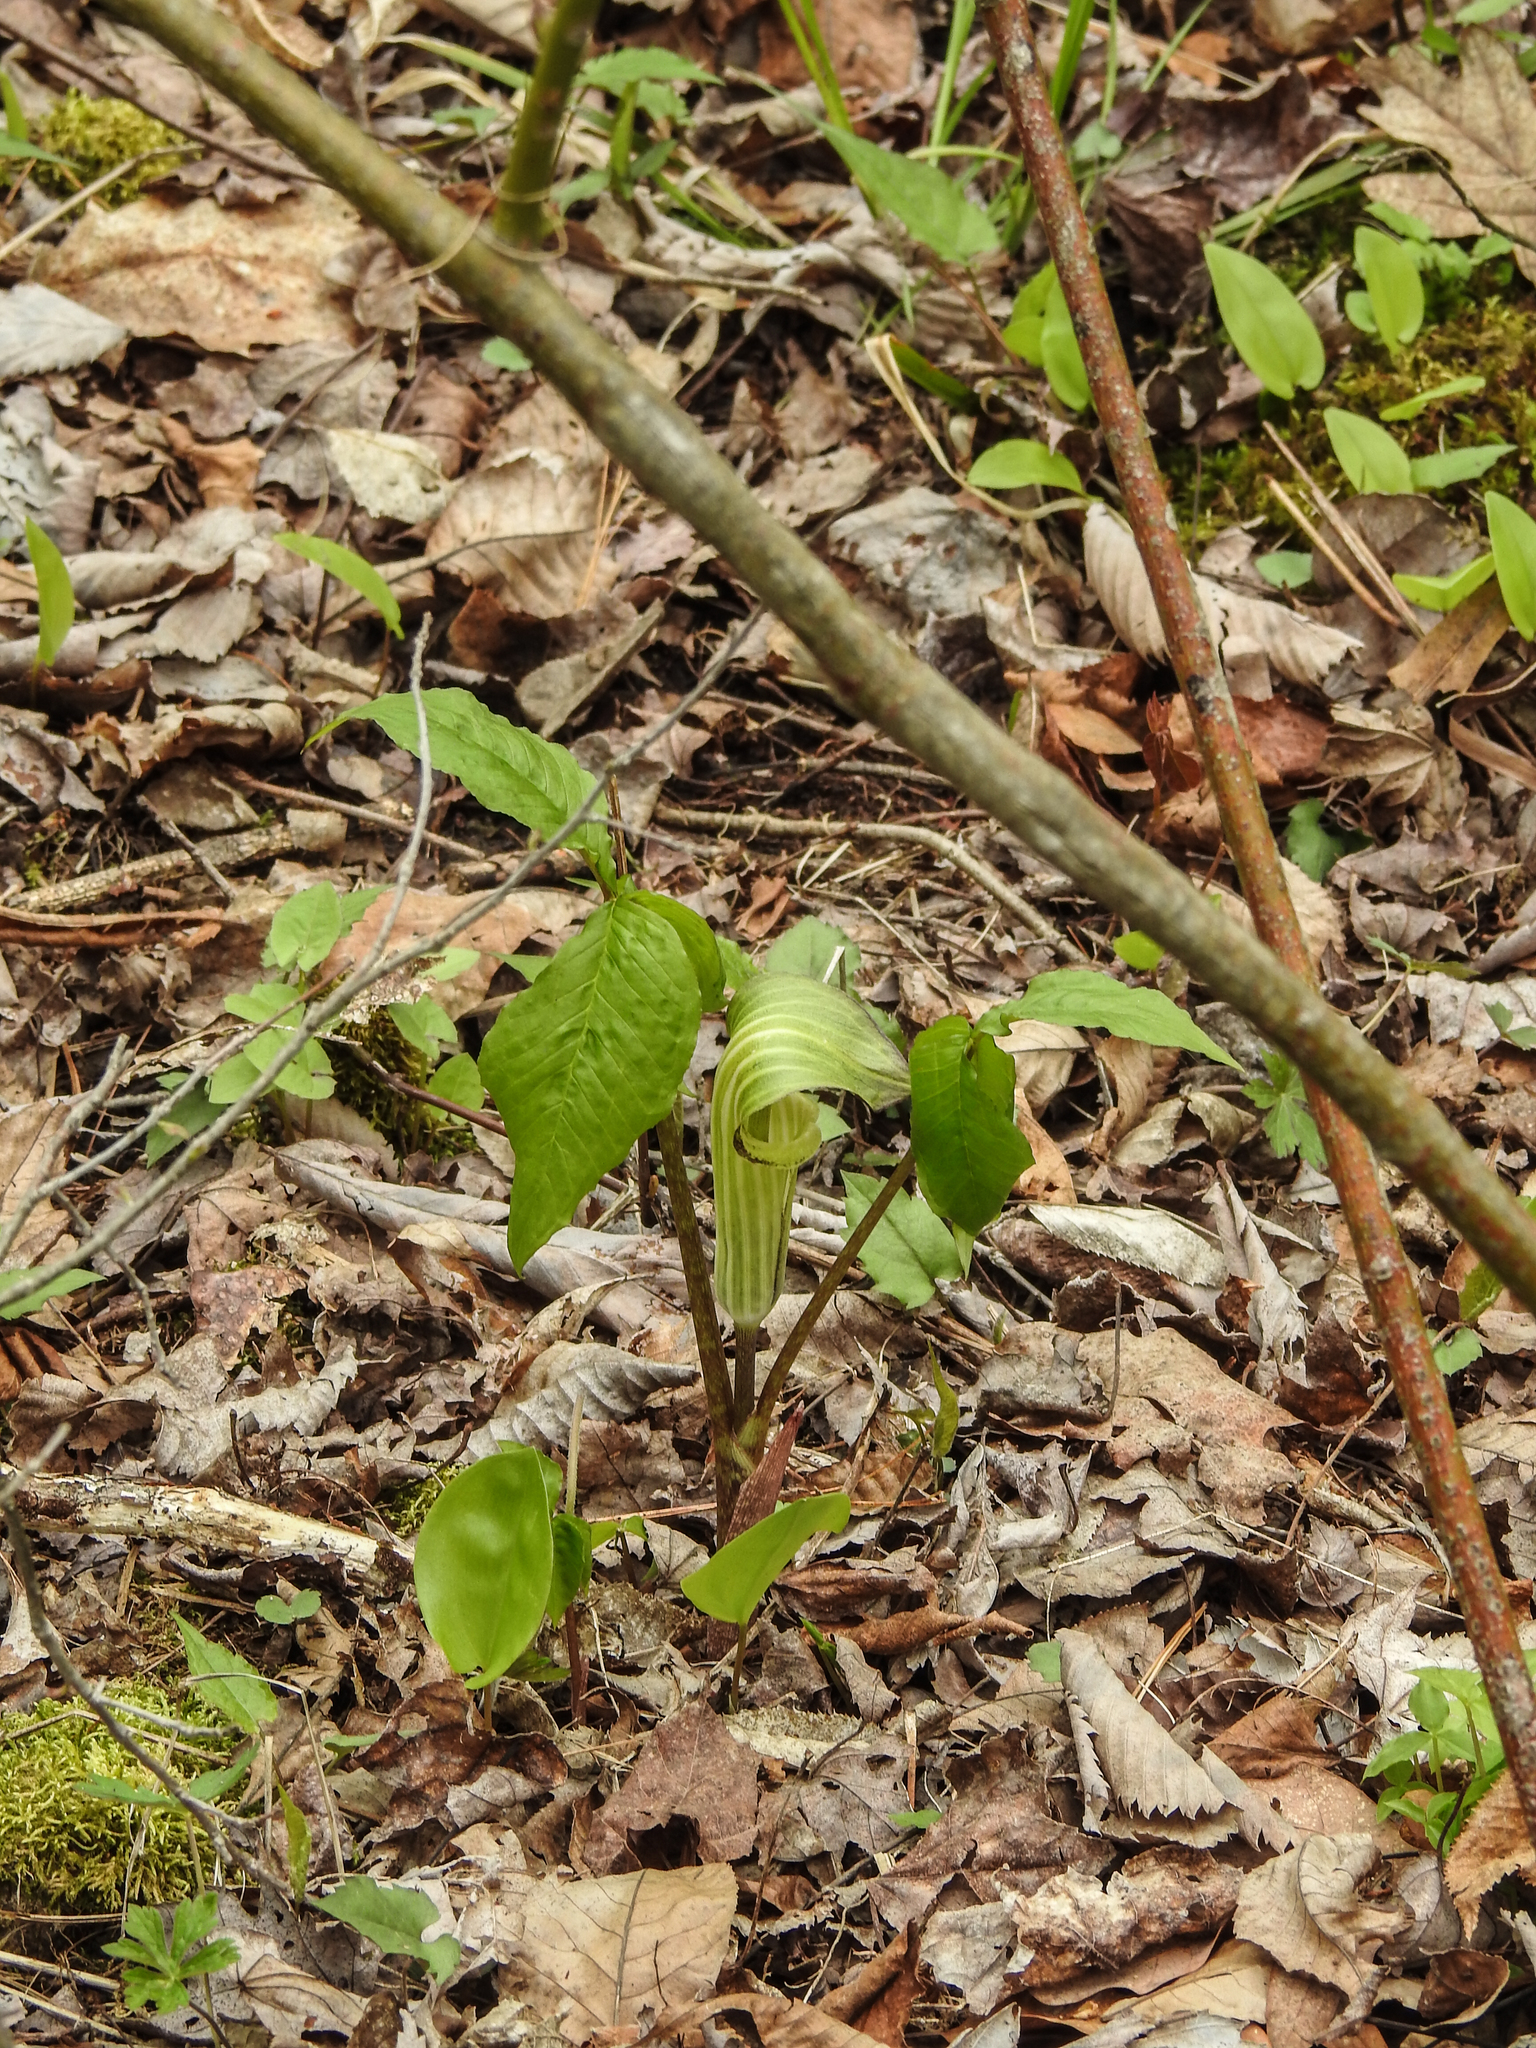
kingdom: Plantae
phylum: Tracheophyta
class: Liliopsida
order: Alismatales
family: Araceae
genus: Arisaema
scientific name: Arisaema triphyllum
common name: Jack-in-the-pulpit
